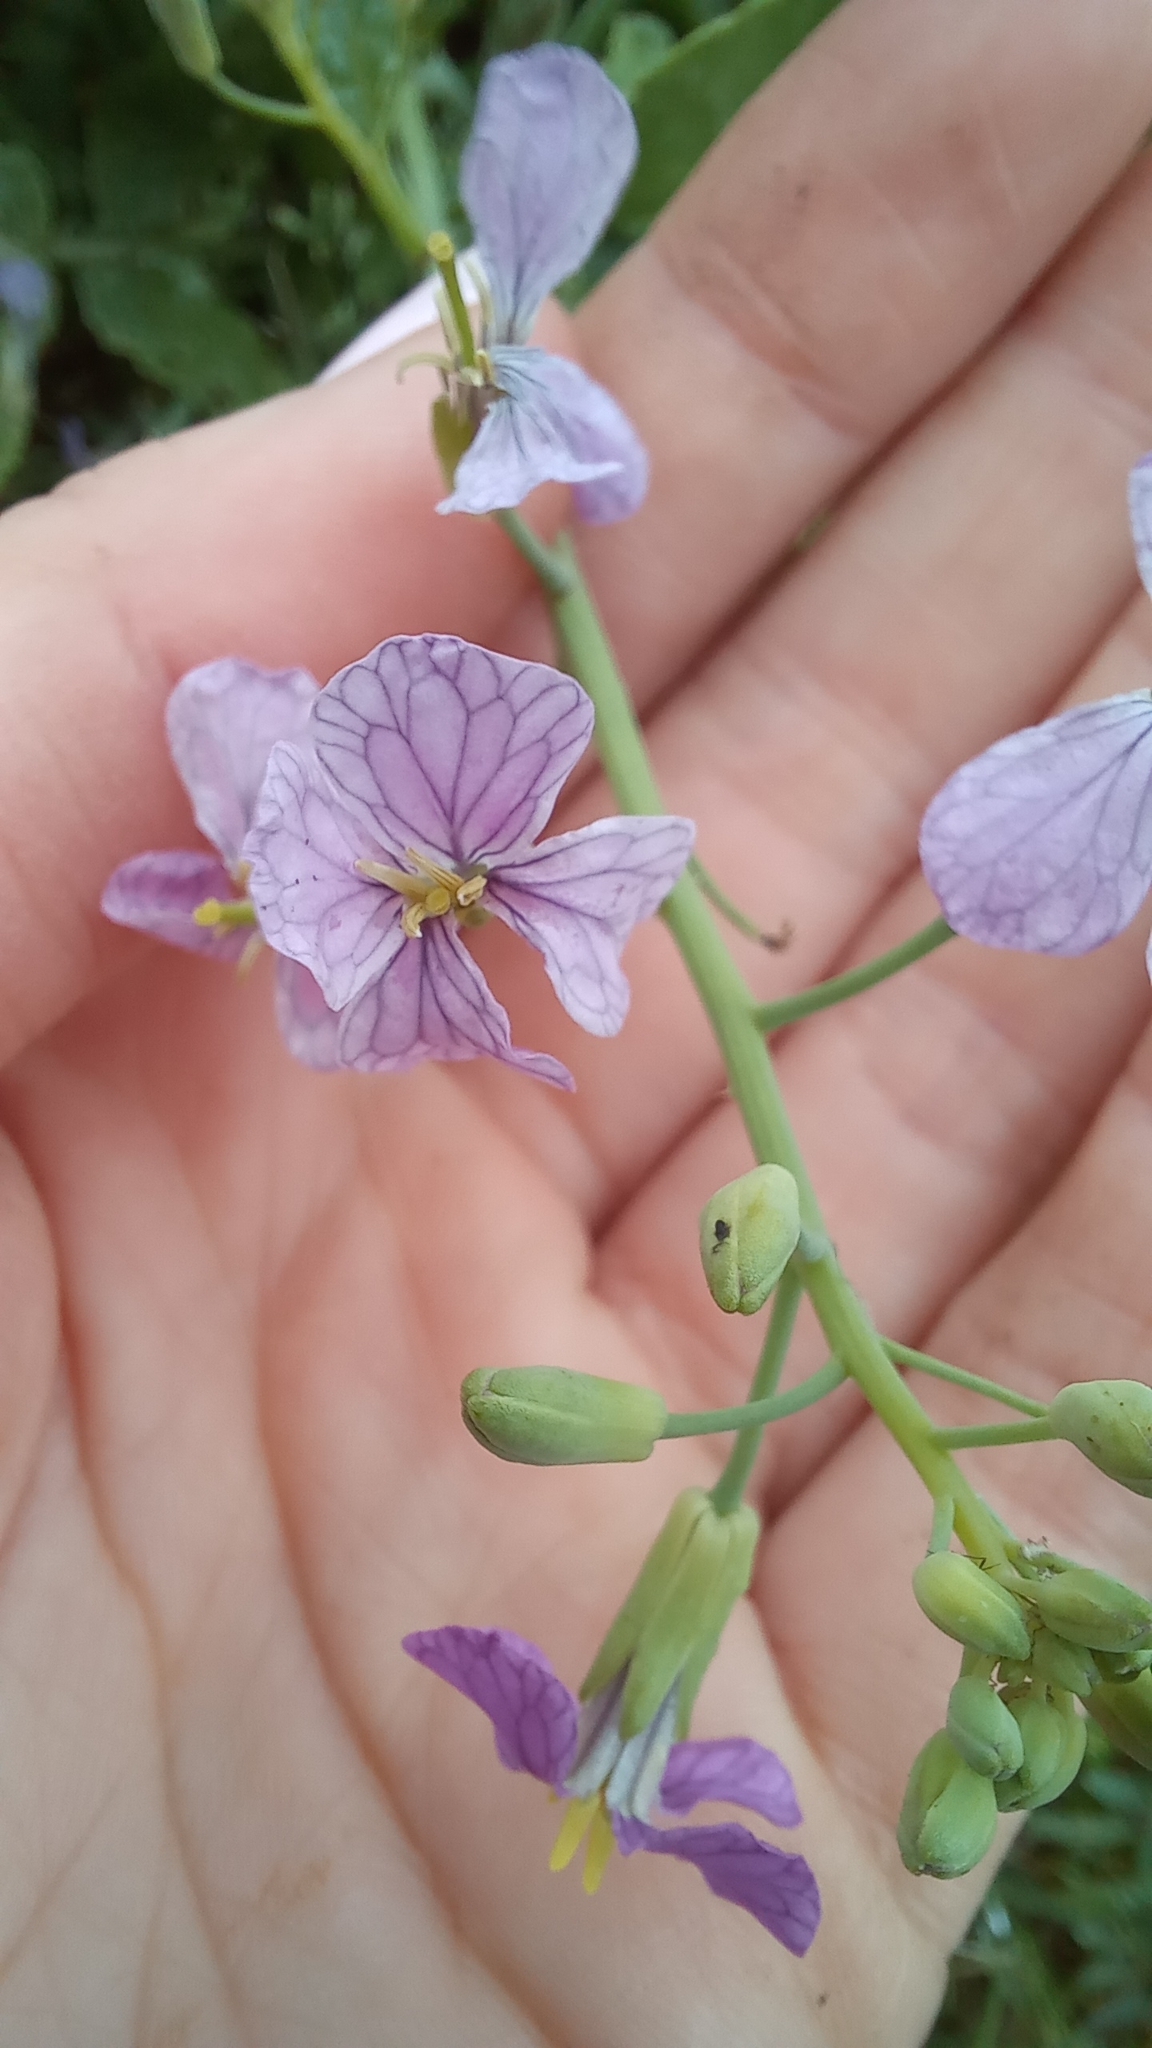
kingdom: Plantae
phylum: Tracheophyta
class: Magnoliopsida
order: Brassicales
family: Brassicaceae
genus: Raphanus
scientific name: Raphanus sativus
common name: Cultivated radish
